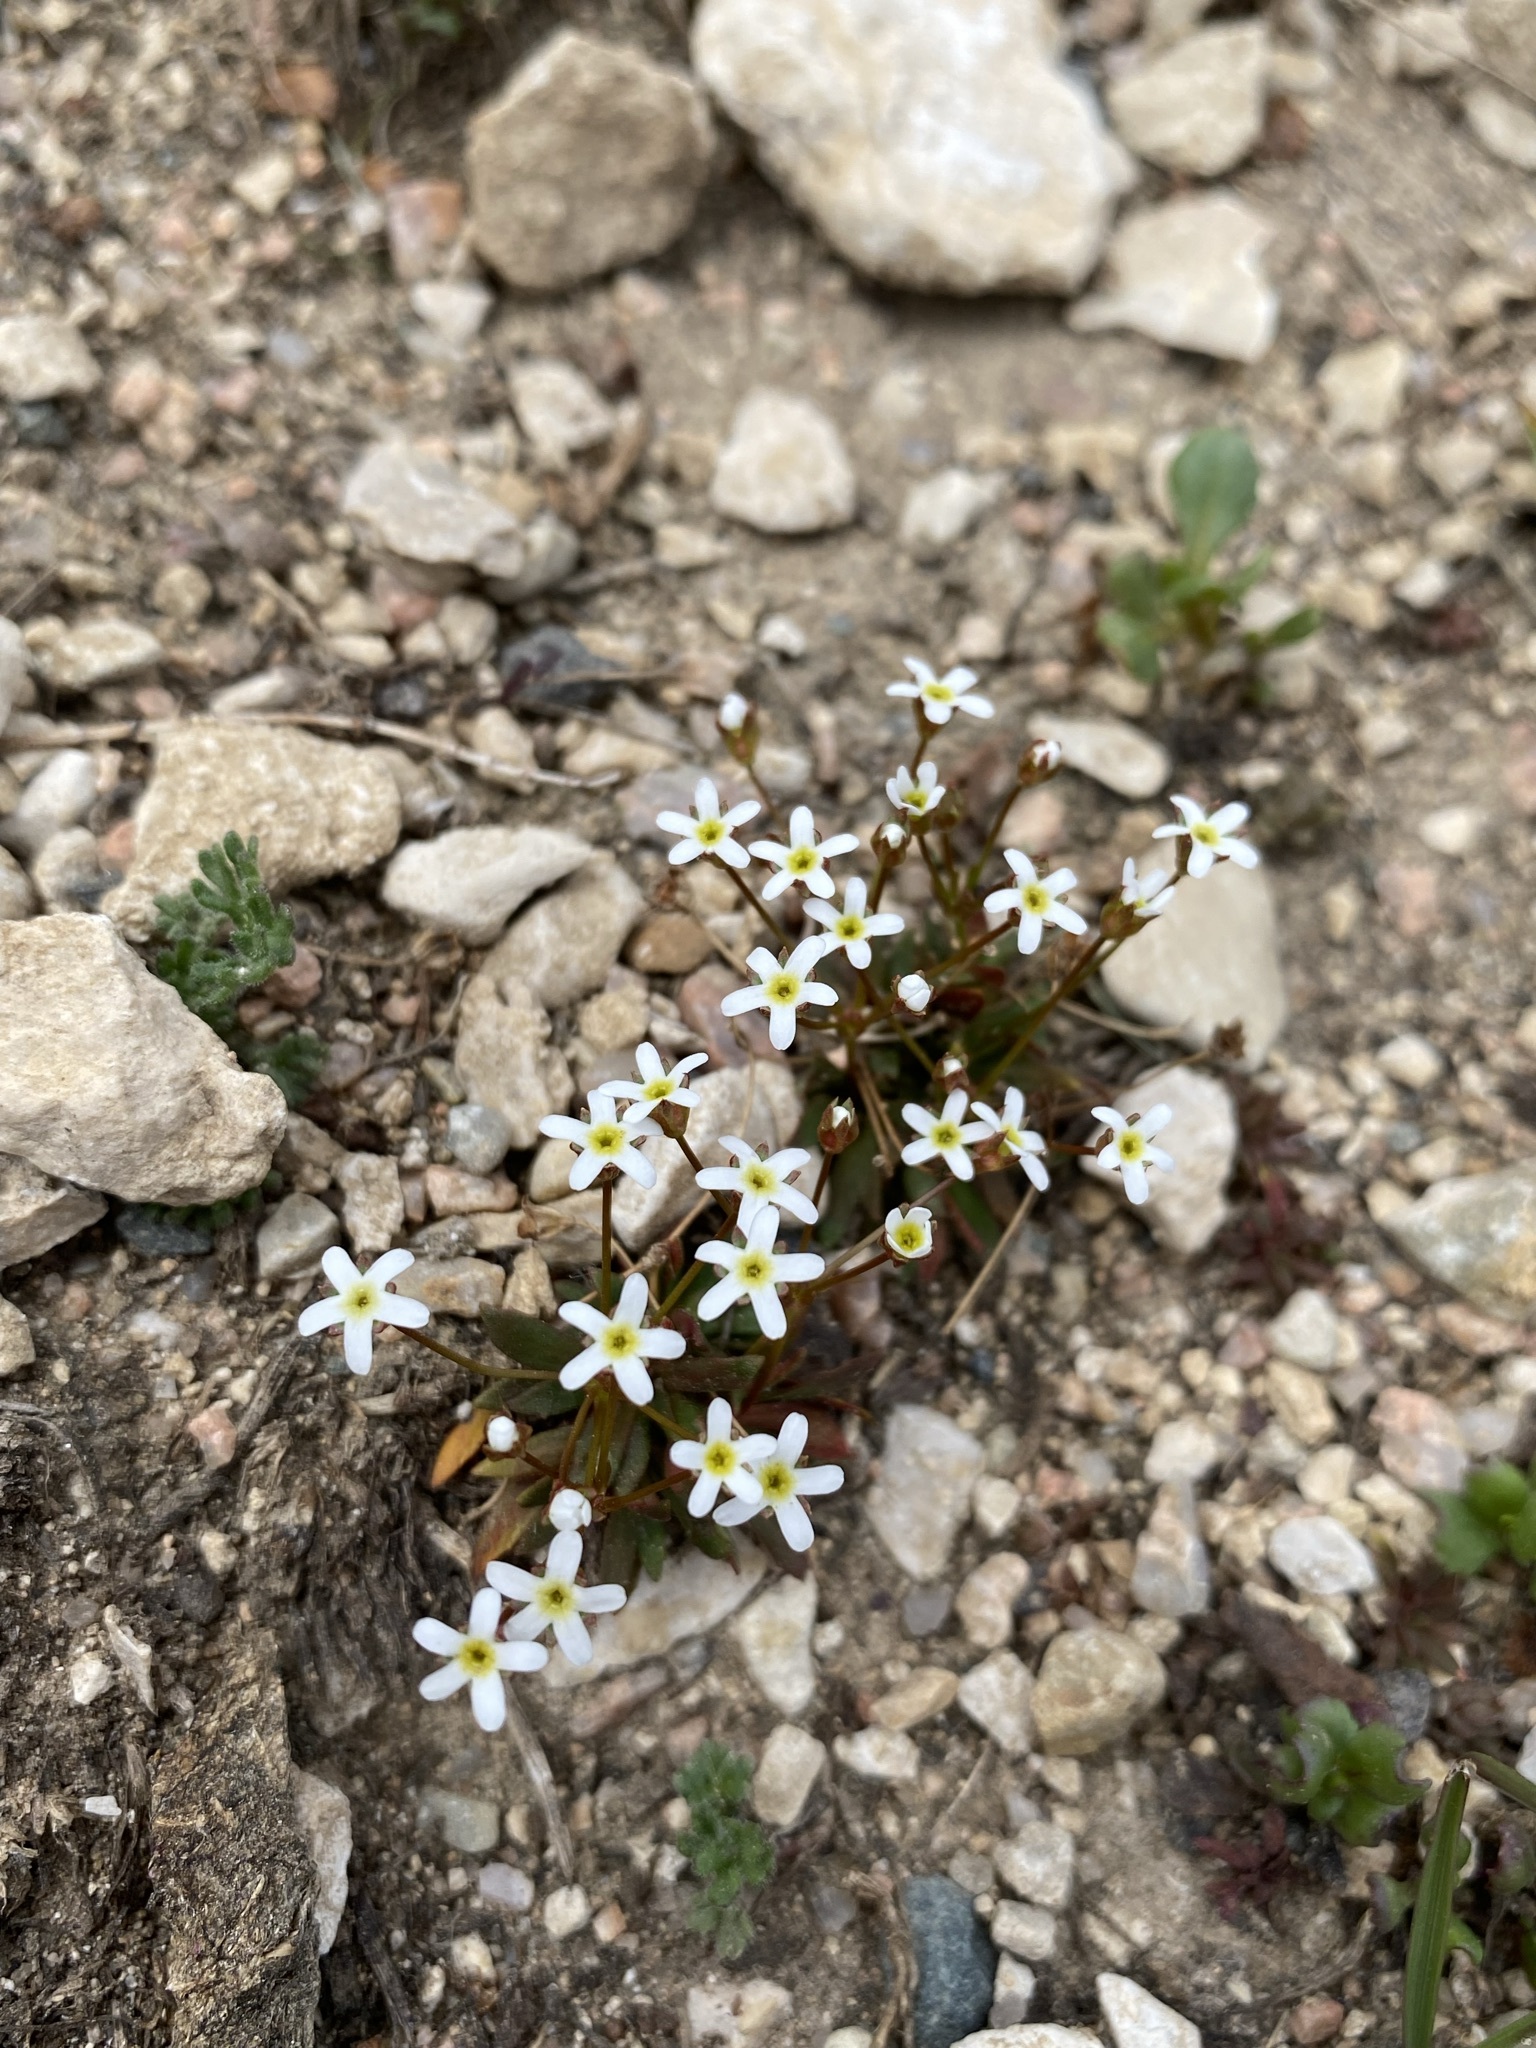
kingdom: Plantae
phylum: Tracheophyta
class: Magnoliopsida
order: Ericales
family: Primulaceae
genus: Androsace
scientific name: Androsace septentrionalis
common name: Hairy northern fairy-candelabra
